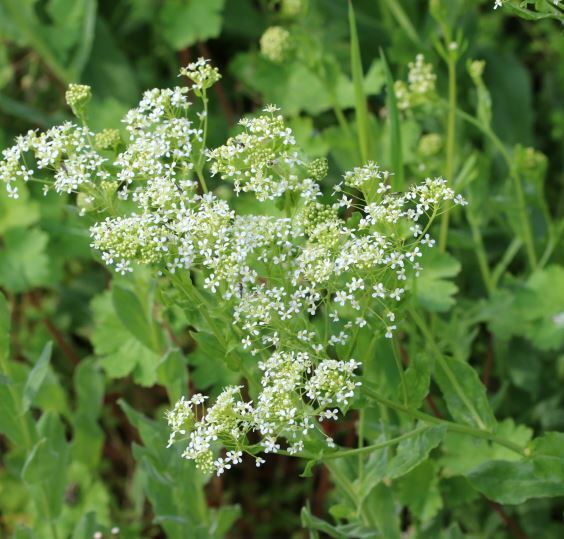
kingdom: Plantae
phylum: Tracheophyta
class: Magnoliopsida
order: Brassicales
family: Brassicaceae
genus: Lepidium
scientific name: Lepidium draba
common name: Hoary cress
